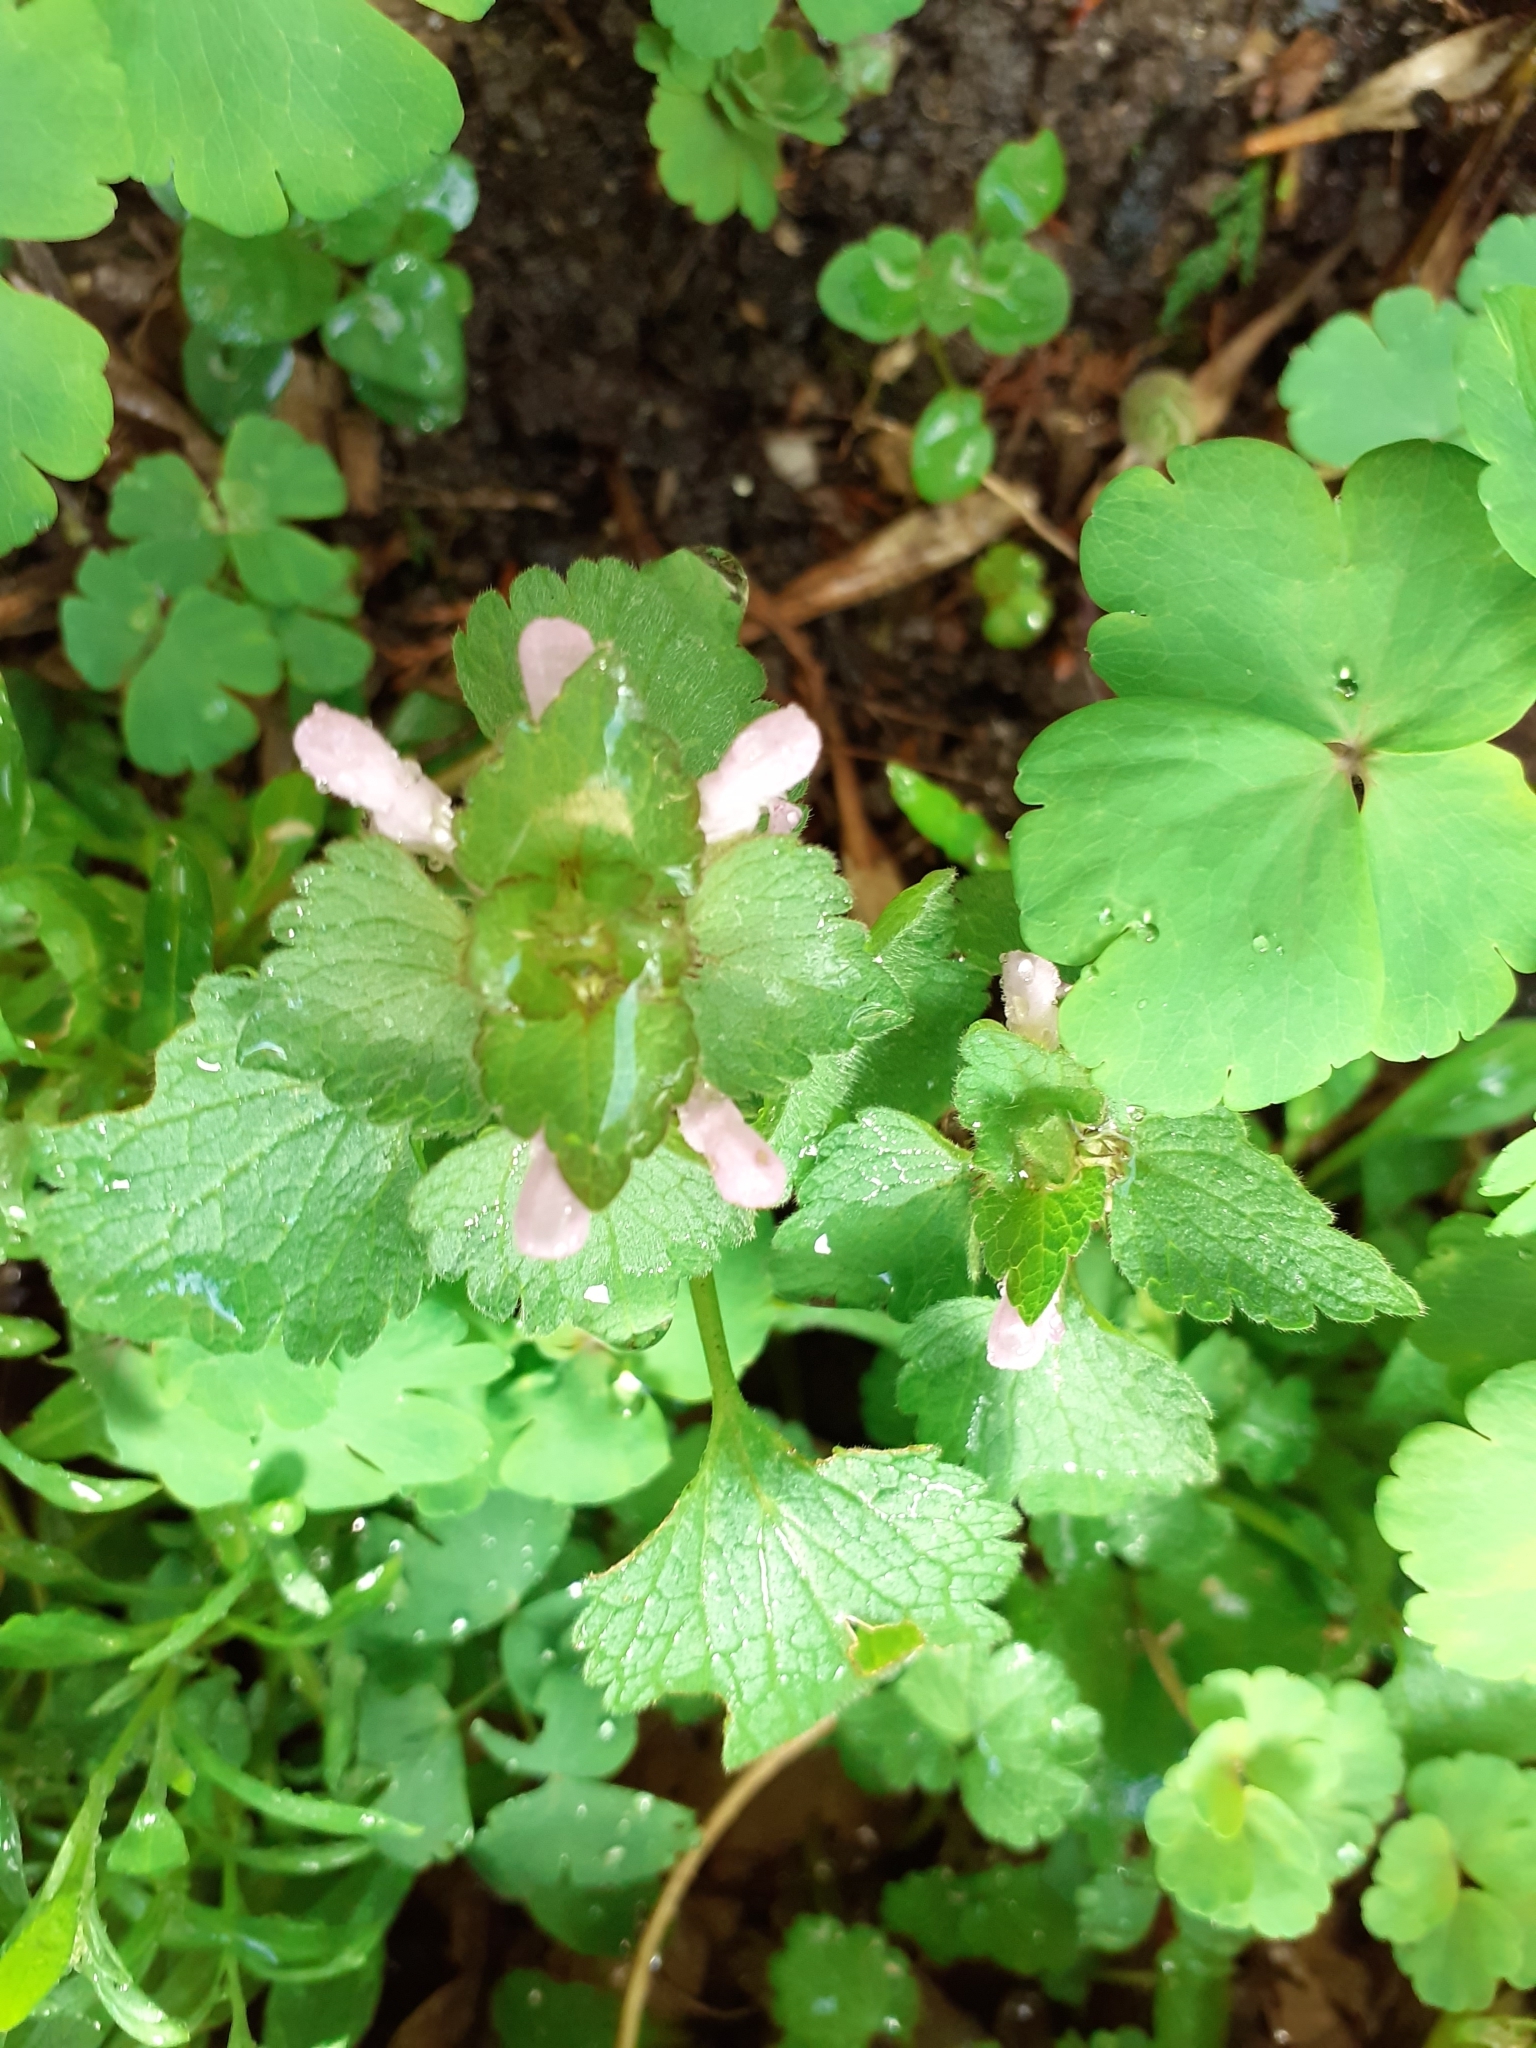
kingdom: Plantae
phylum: Tracheophyta
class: Magnoliopsida
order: Lamiales
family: Lamiaceae
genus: Lamium
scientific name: Lamium purpureum
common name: Red dead-nettle
